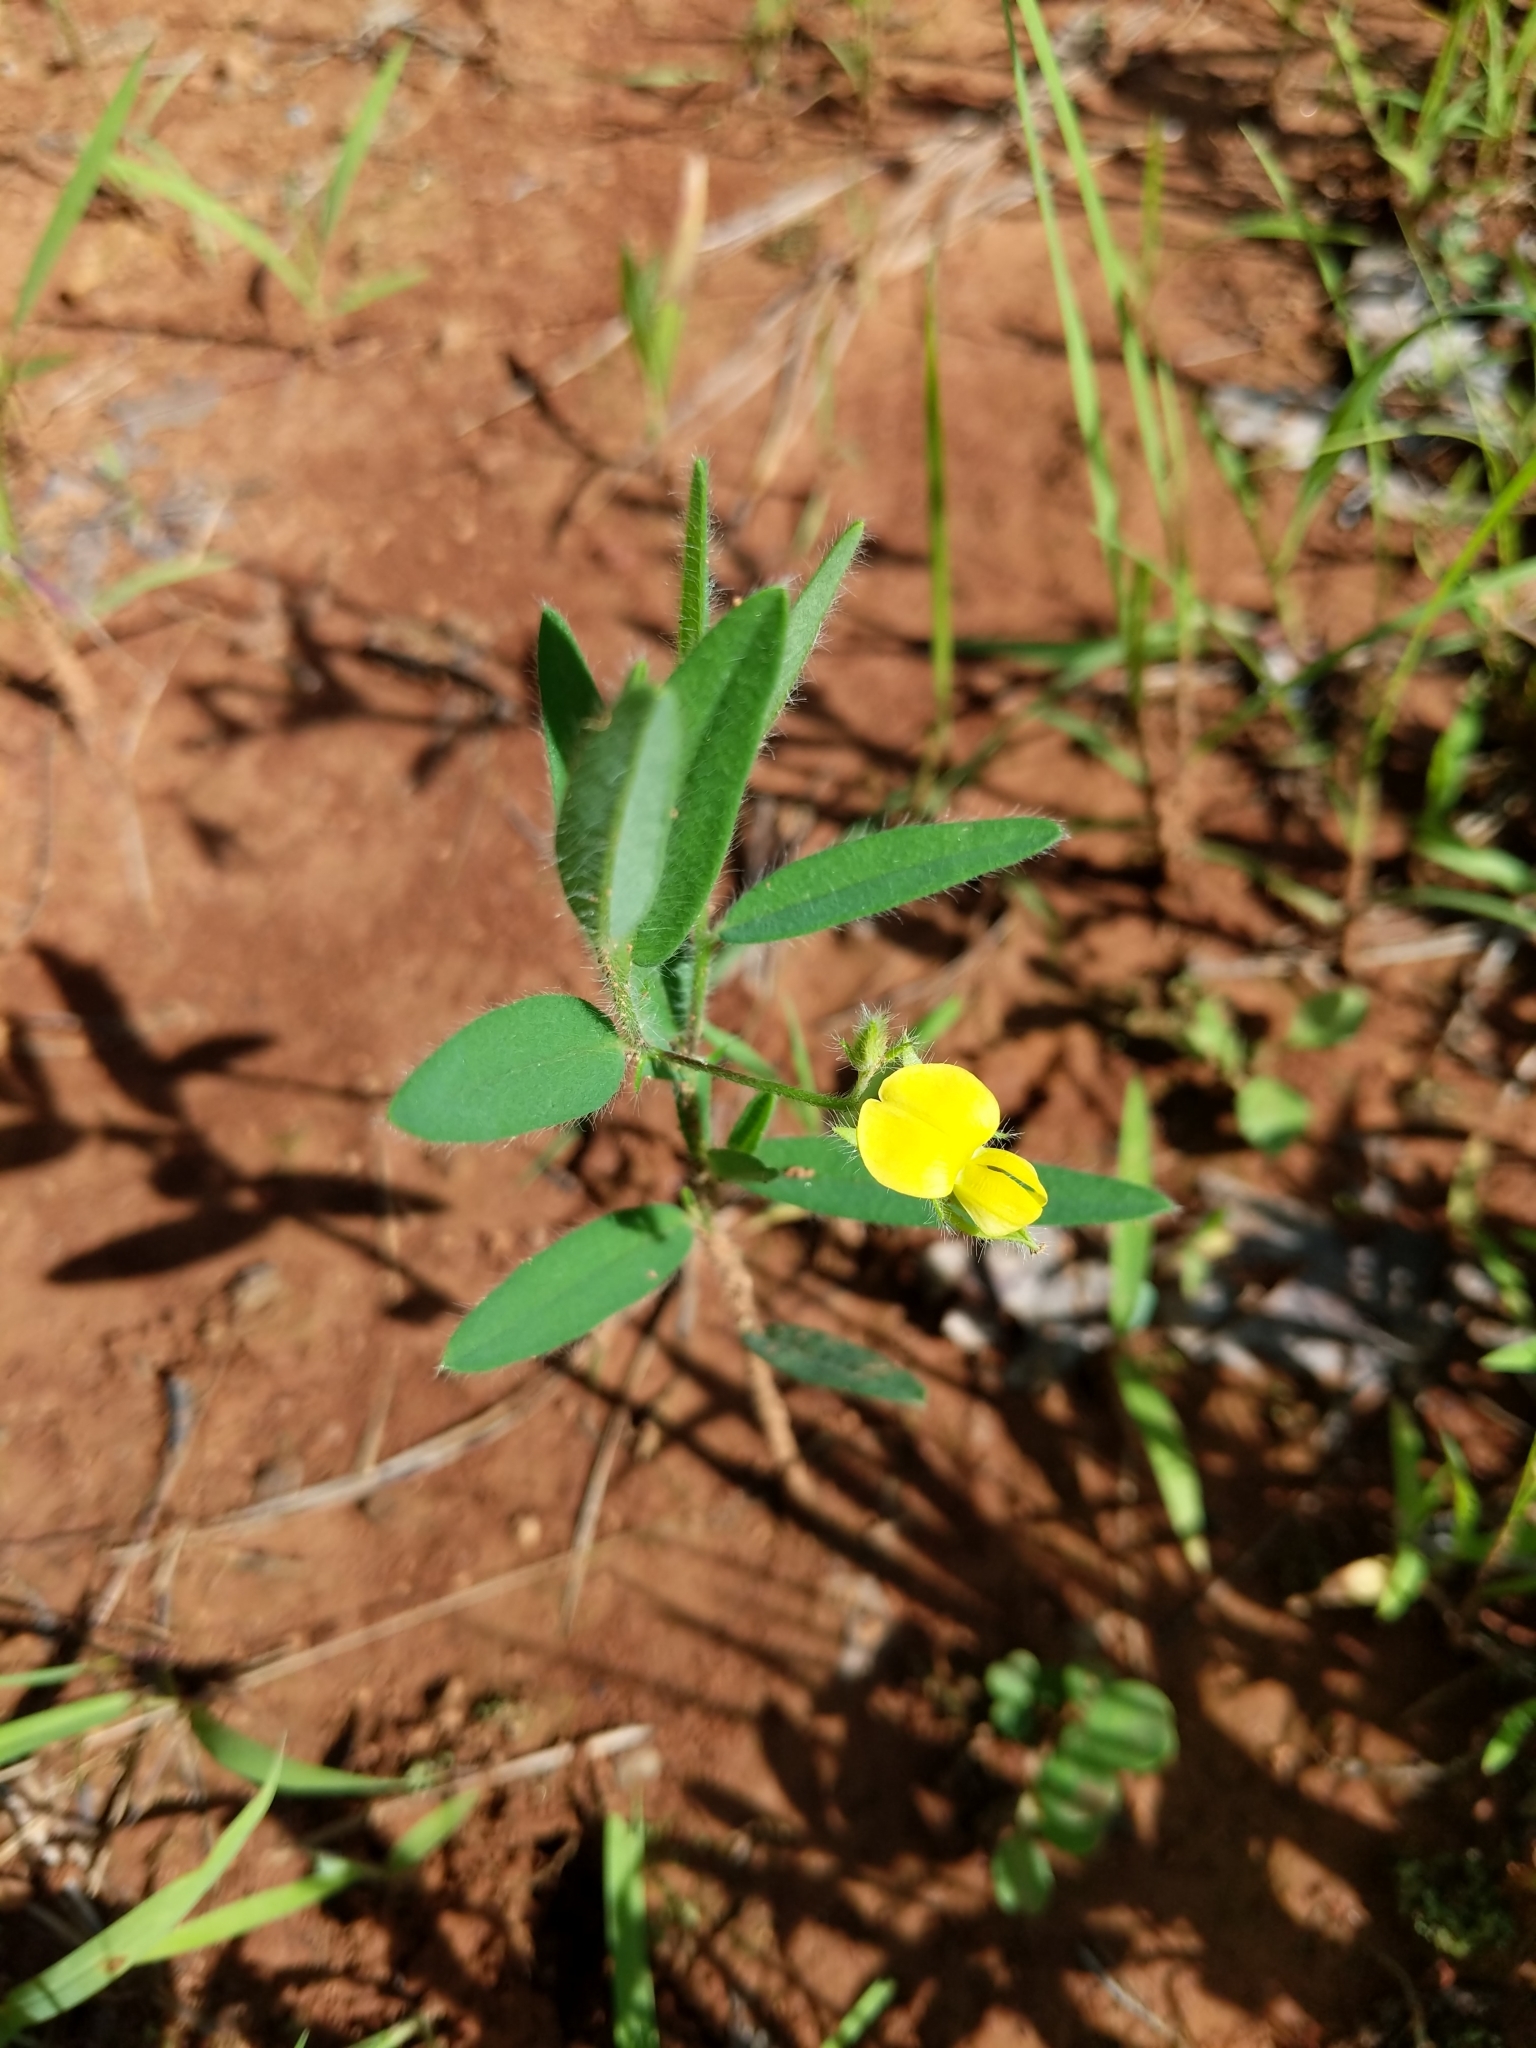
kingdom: Plantae
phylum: Tracheophyta
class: Magnoliopsida
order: Fabales
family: Fabaceae
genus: Stylosanthes
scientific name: Stylosanthes biflora
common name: Two-flower pencil-flower
